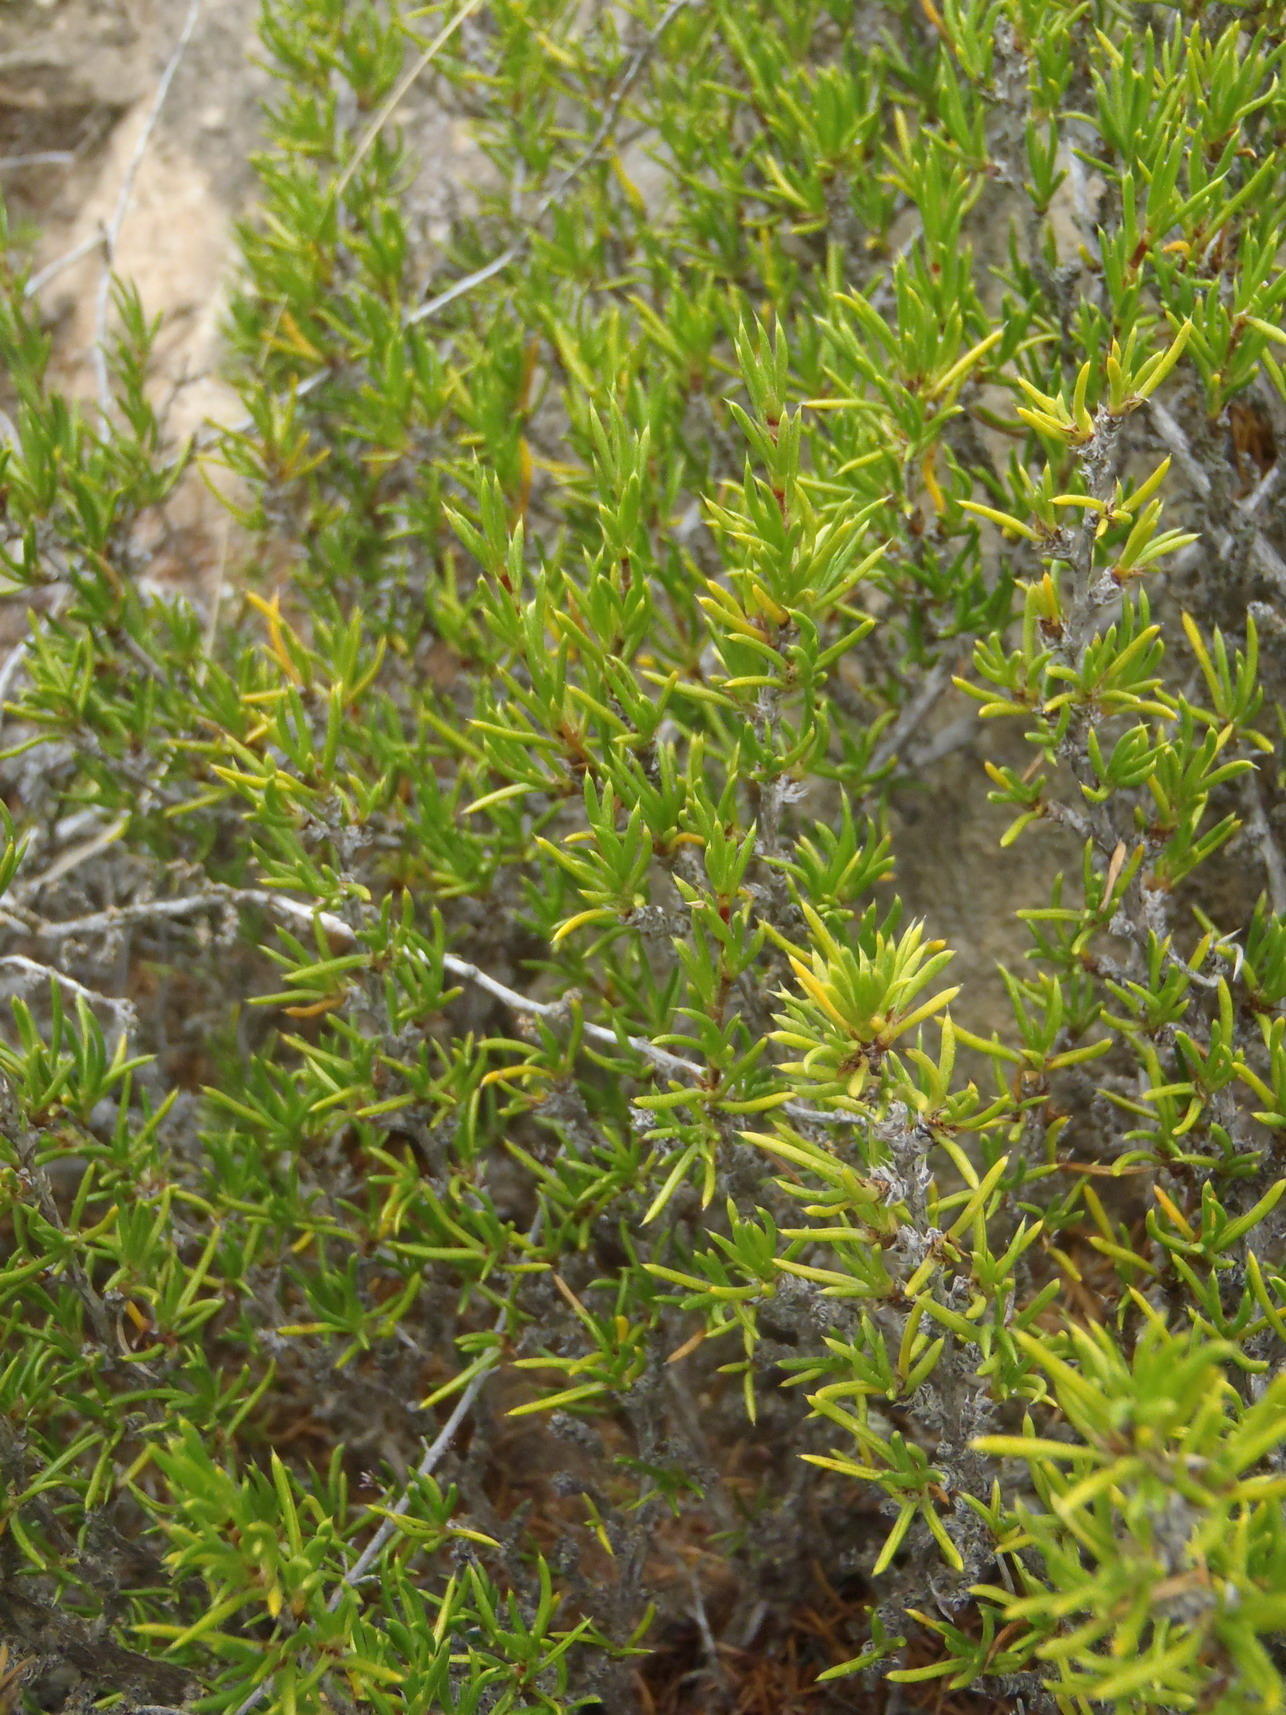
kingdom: Plantae
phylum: Tracheophyta
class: Magnoliopsida
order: Rosales
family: Rosaceae
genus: Cliffortia
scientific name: Cliffortia neglecta
